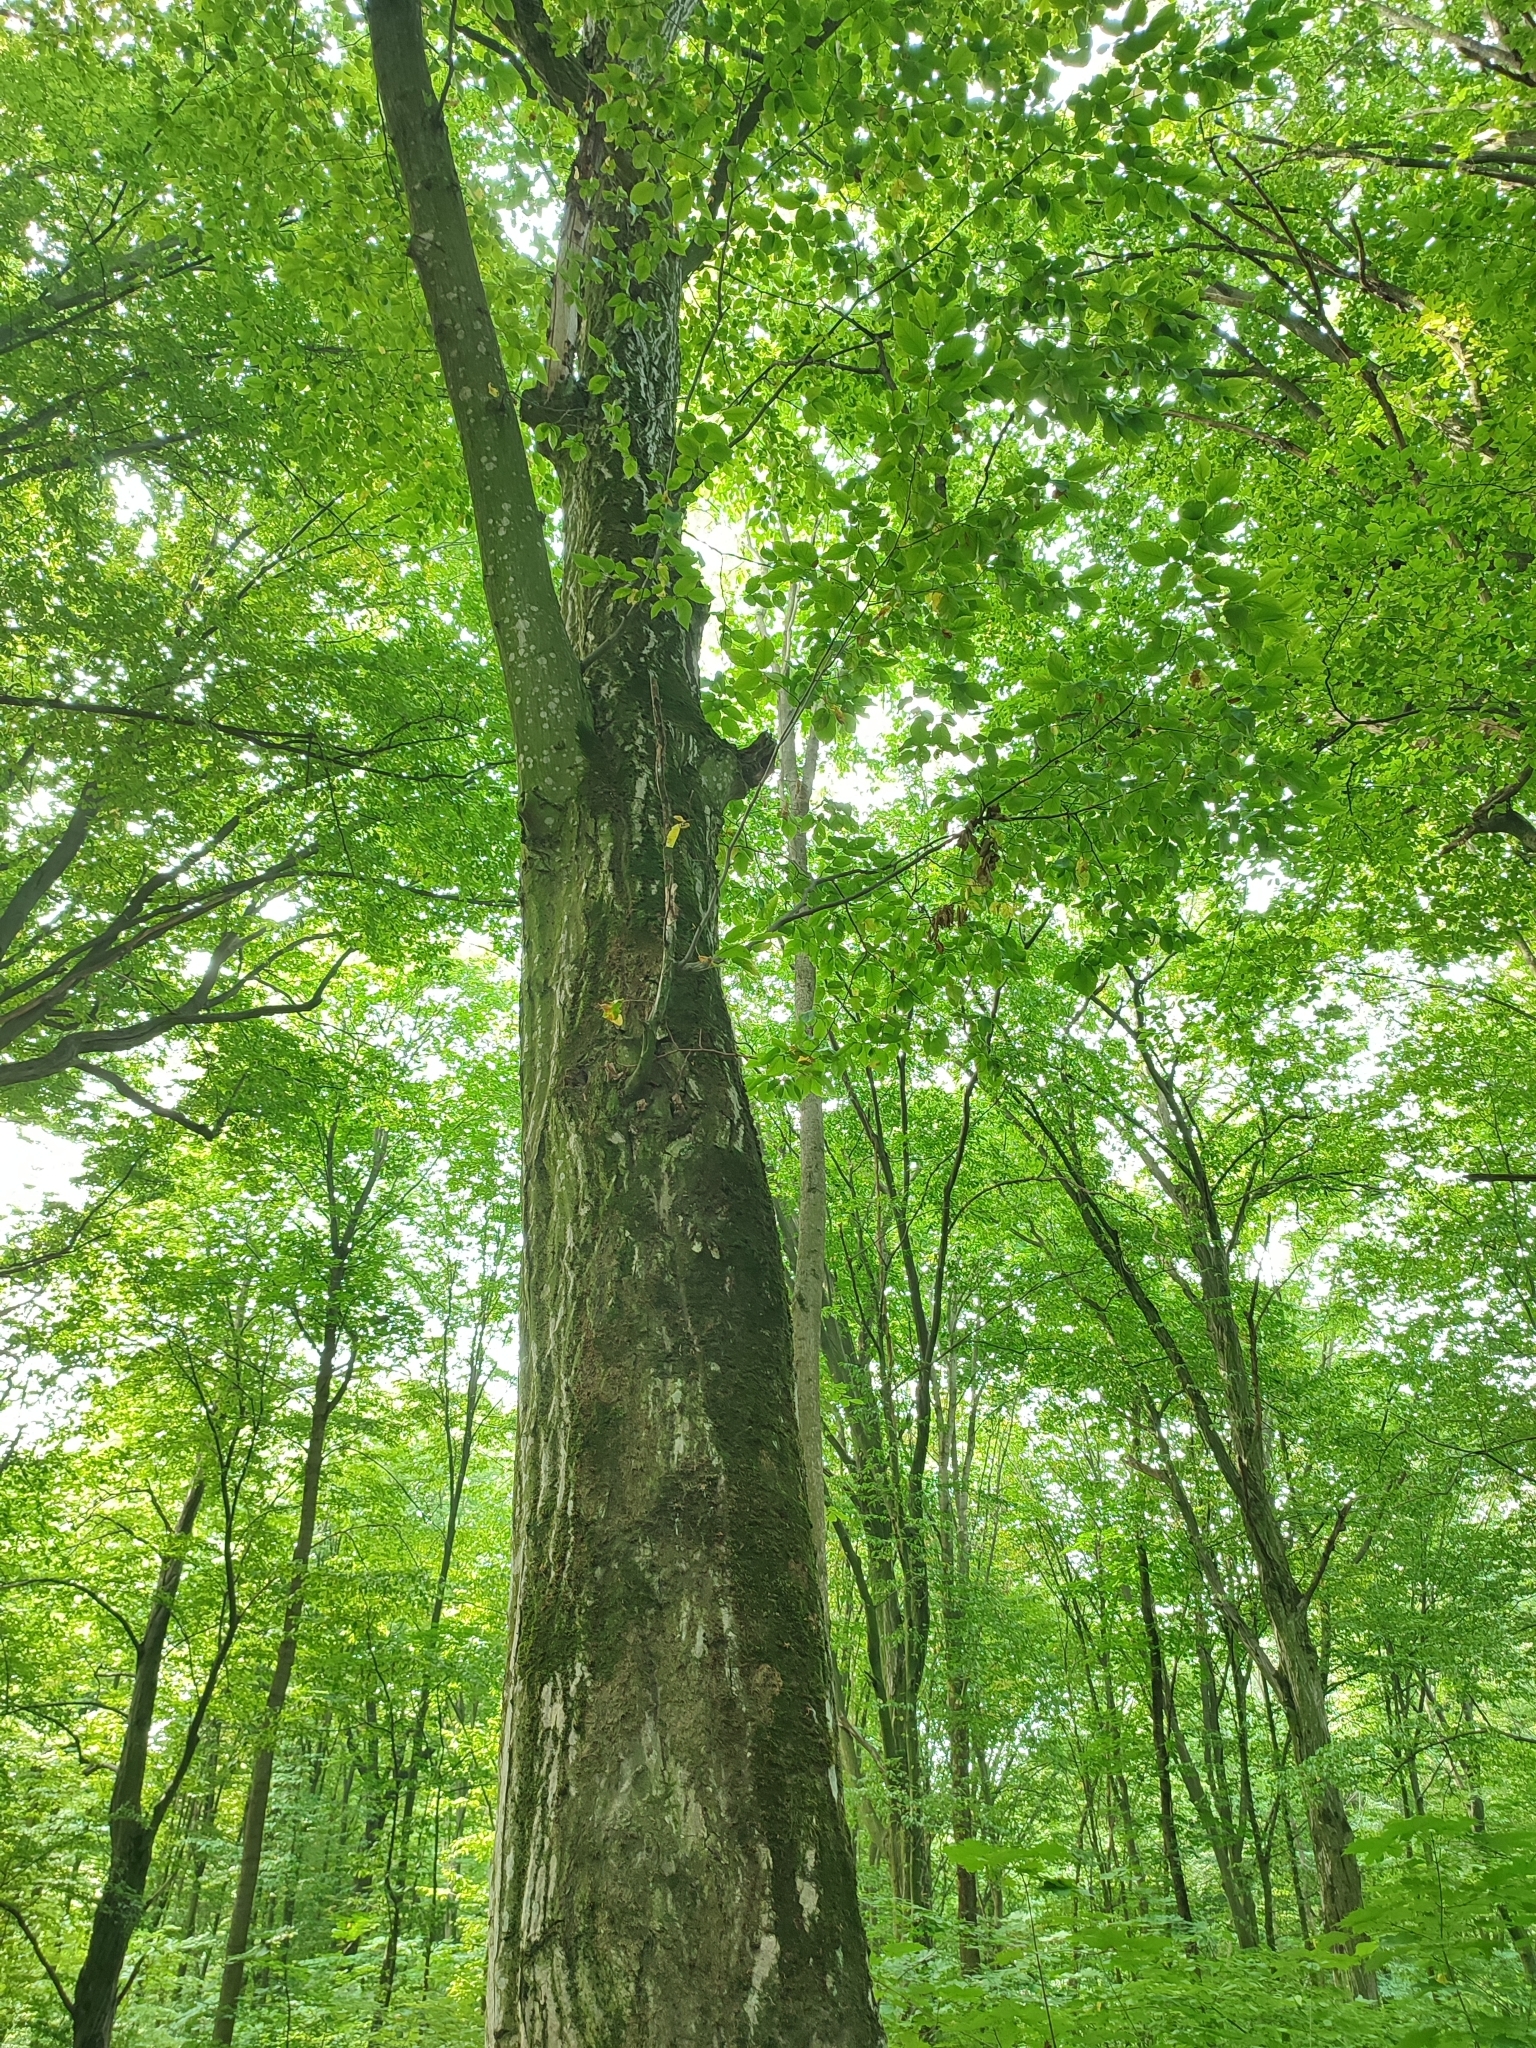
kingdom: Plantae
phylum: Tracheophyta
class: Magnoliopsida
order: Fagales
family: Betulaceae
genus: Carpinus
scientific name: Carpinus betulus
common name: Hornbeam
